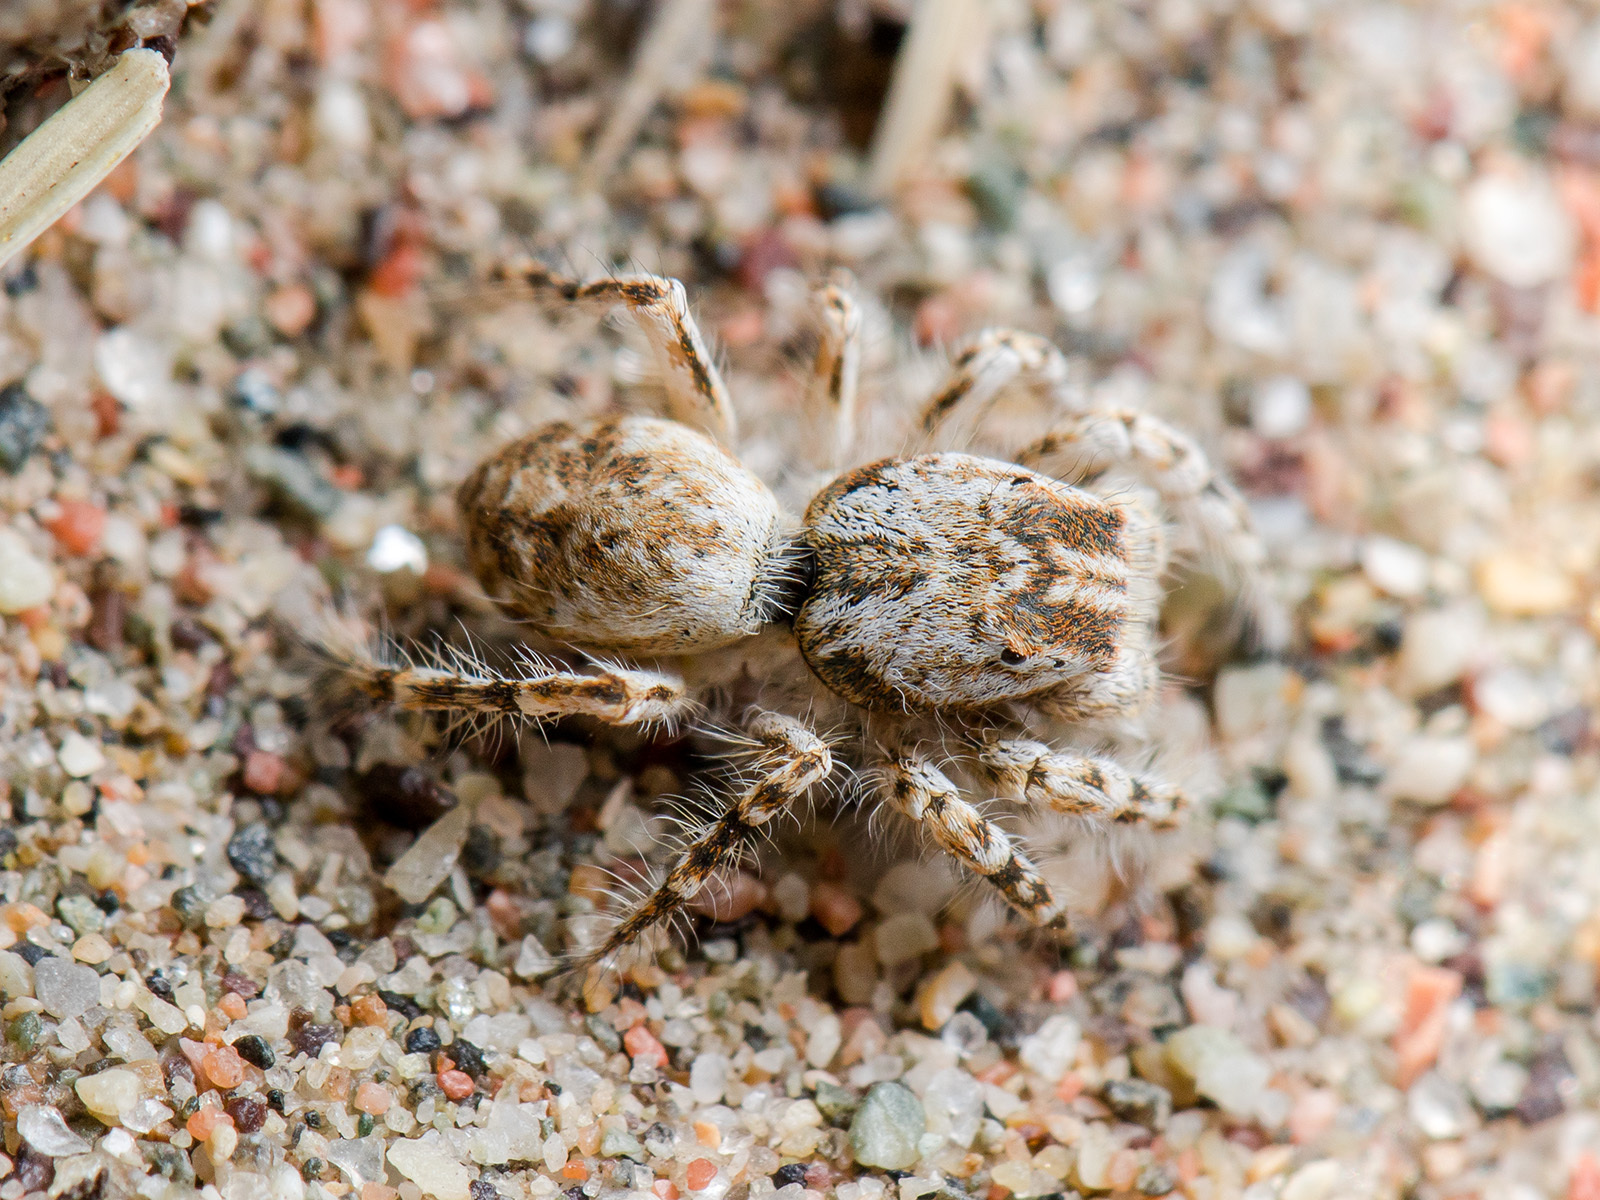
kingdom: Animalia
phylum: Arthropoda
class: Arachnida
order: Araneae
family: Salticidae
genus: Yllenus
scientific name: Yllenus turkestanicus
